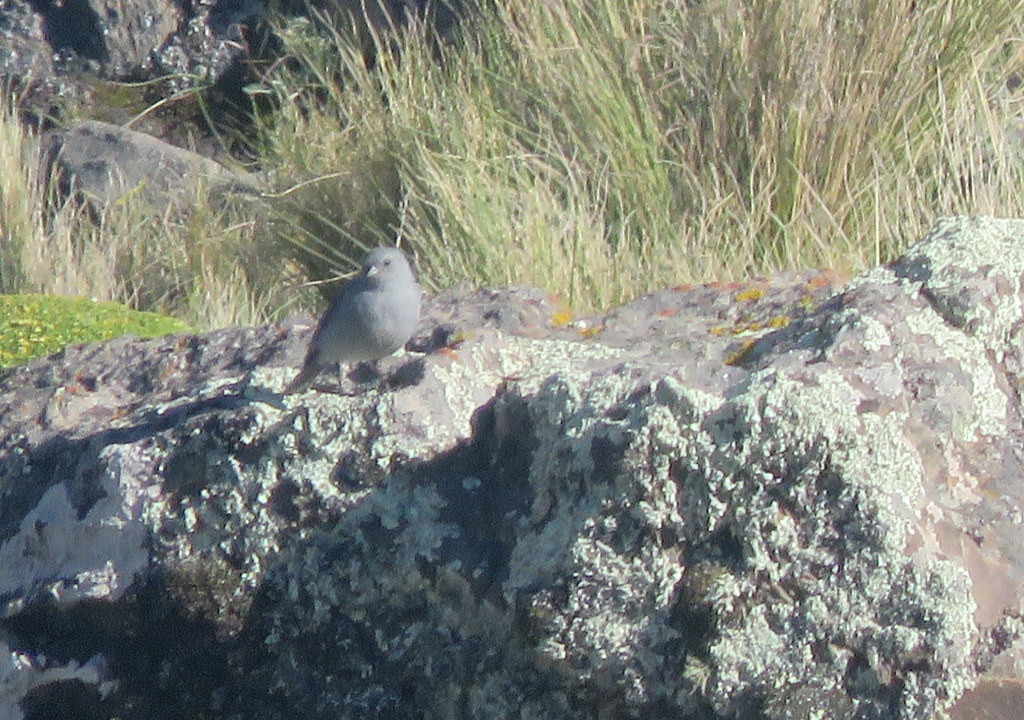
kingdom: Animalia
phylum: Chordata
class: Aves
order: Passeriformes
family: Thraupidae
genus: Geospizopsis
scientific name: Geospizopsis unicolor
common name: Plumbeous sierra-finch
